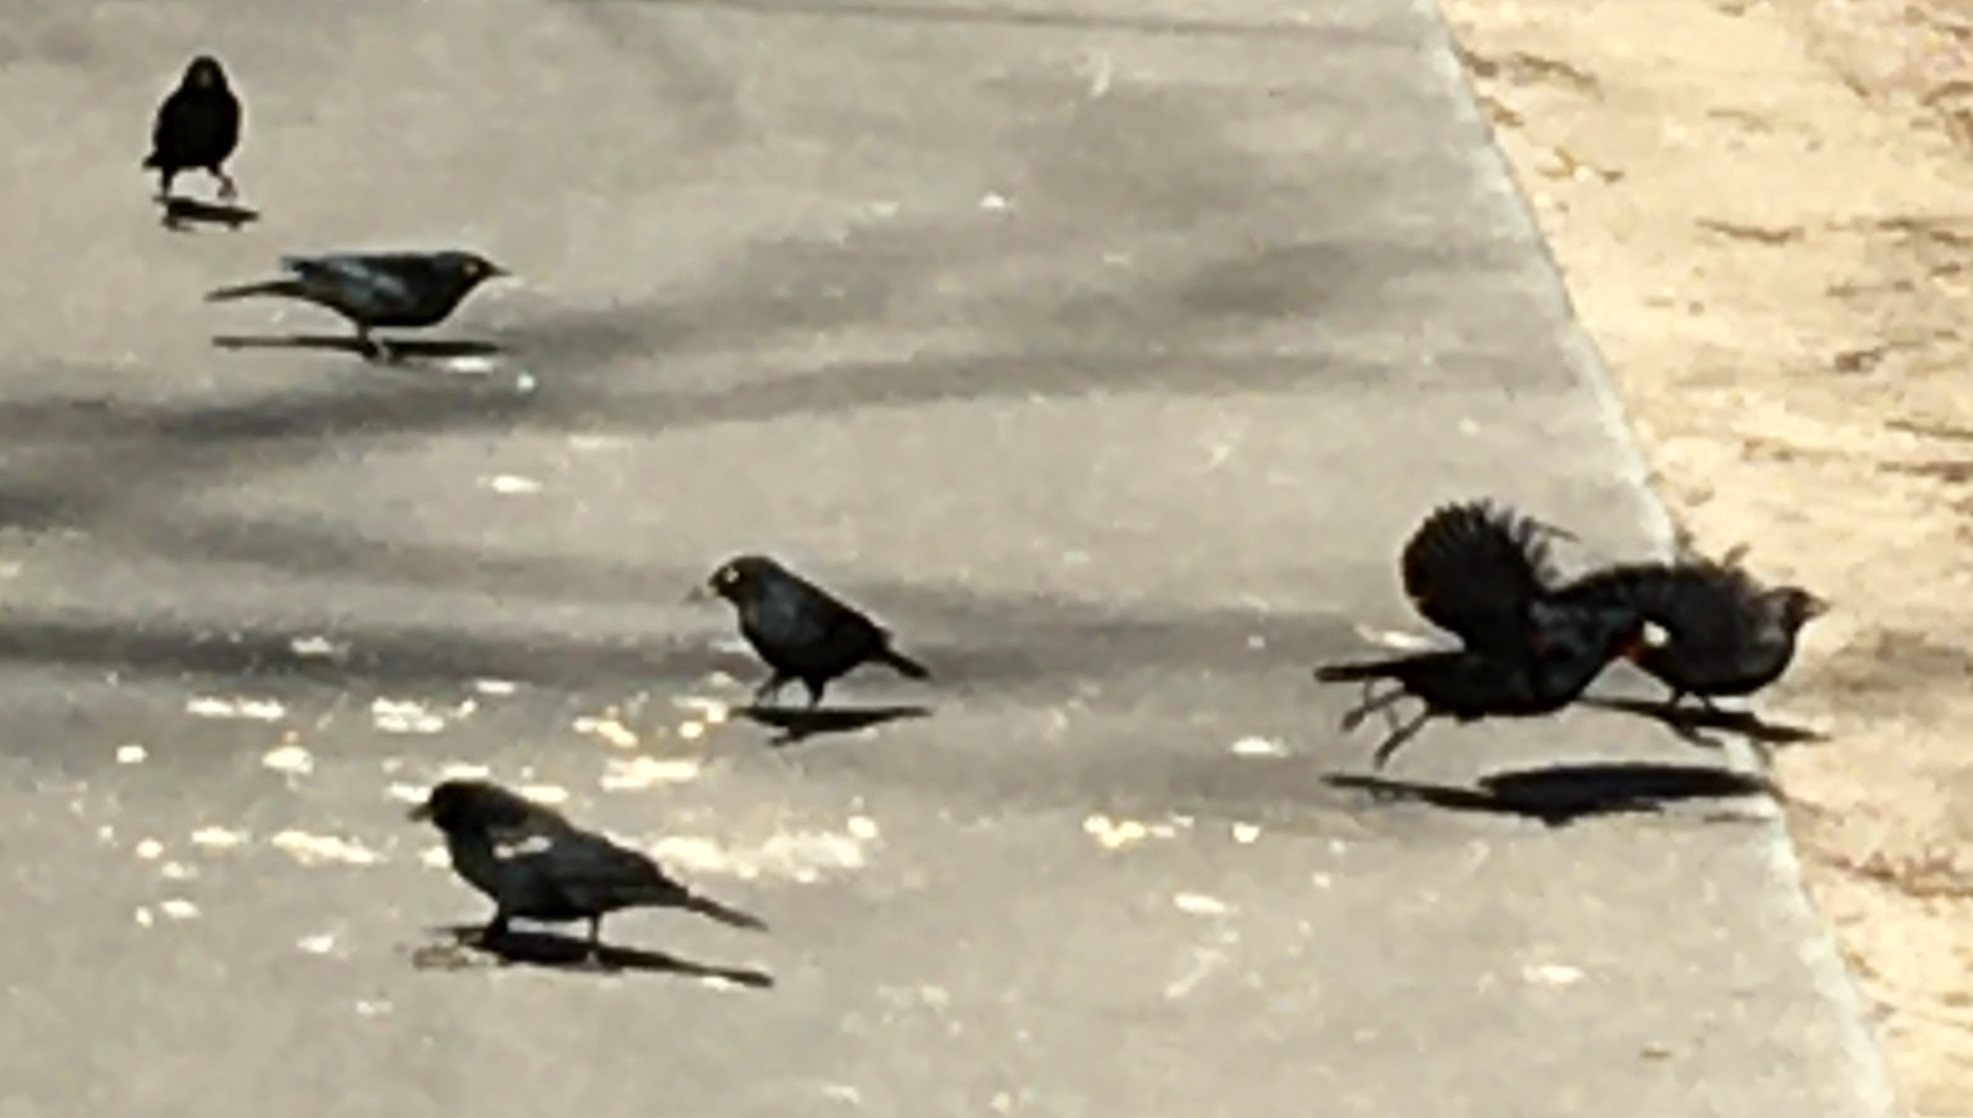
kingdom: Animalia
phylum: Chordata
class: Aves
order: Passeriformes
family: Icteridae
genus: Agelaius
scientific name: Agelaius phoeniceus
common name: Red-winged blackbird
